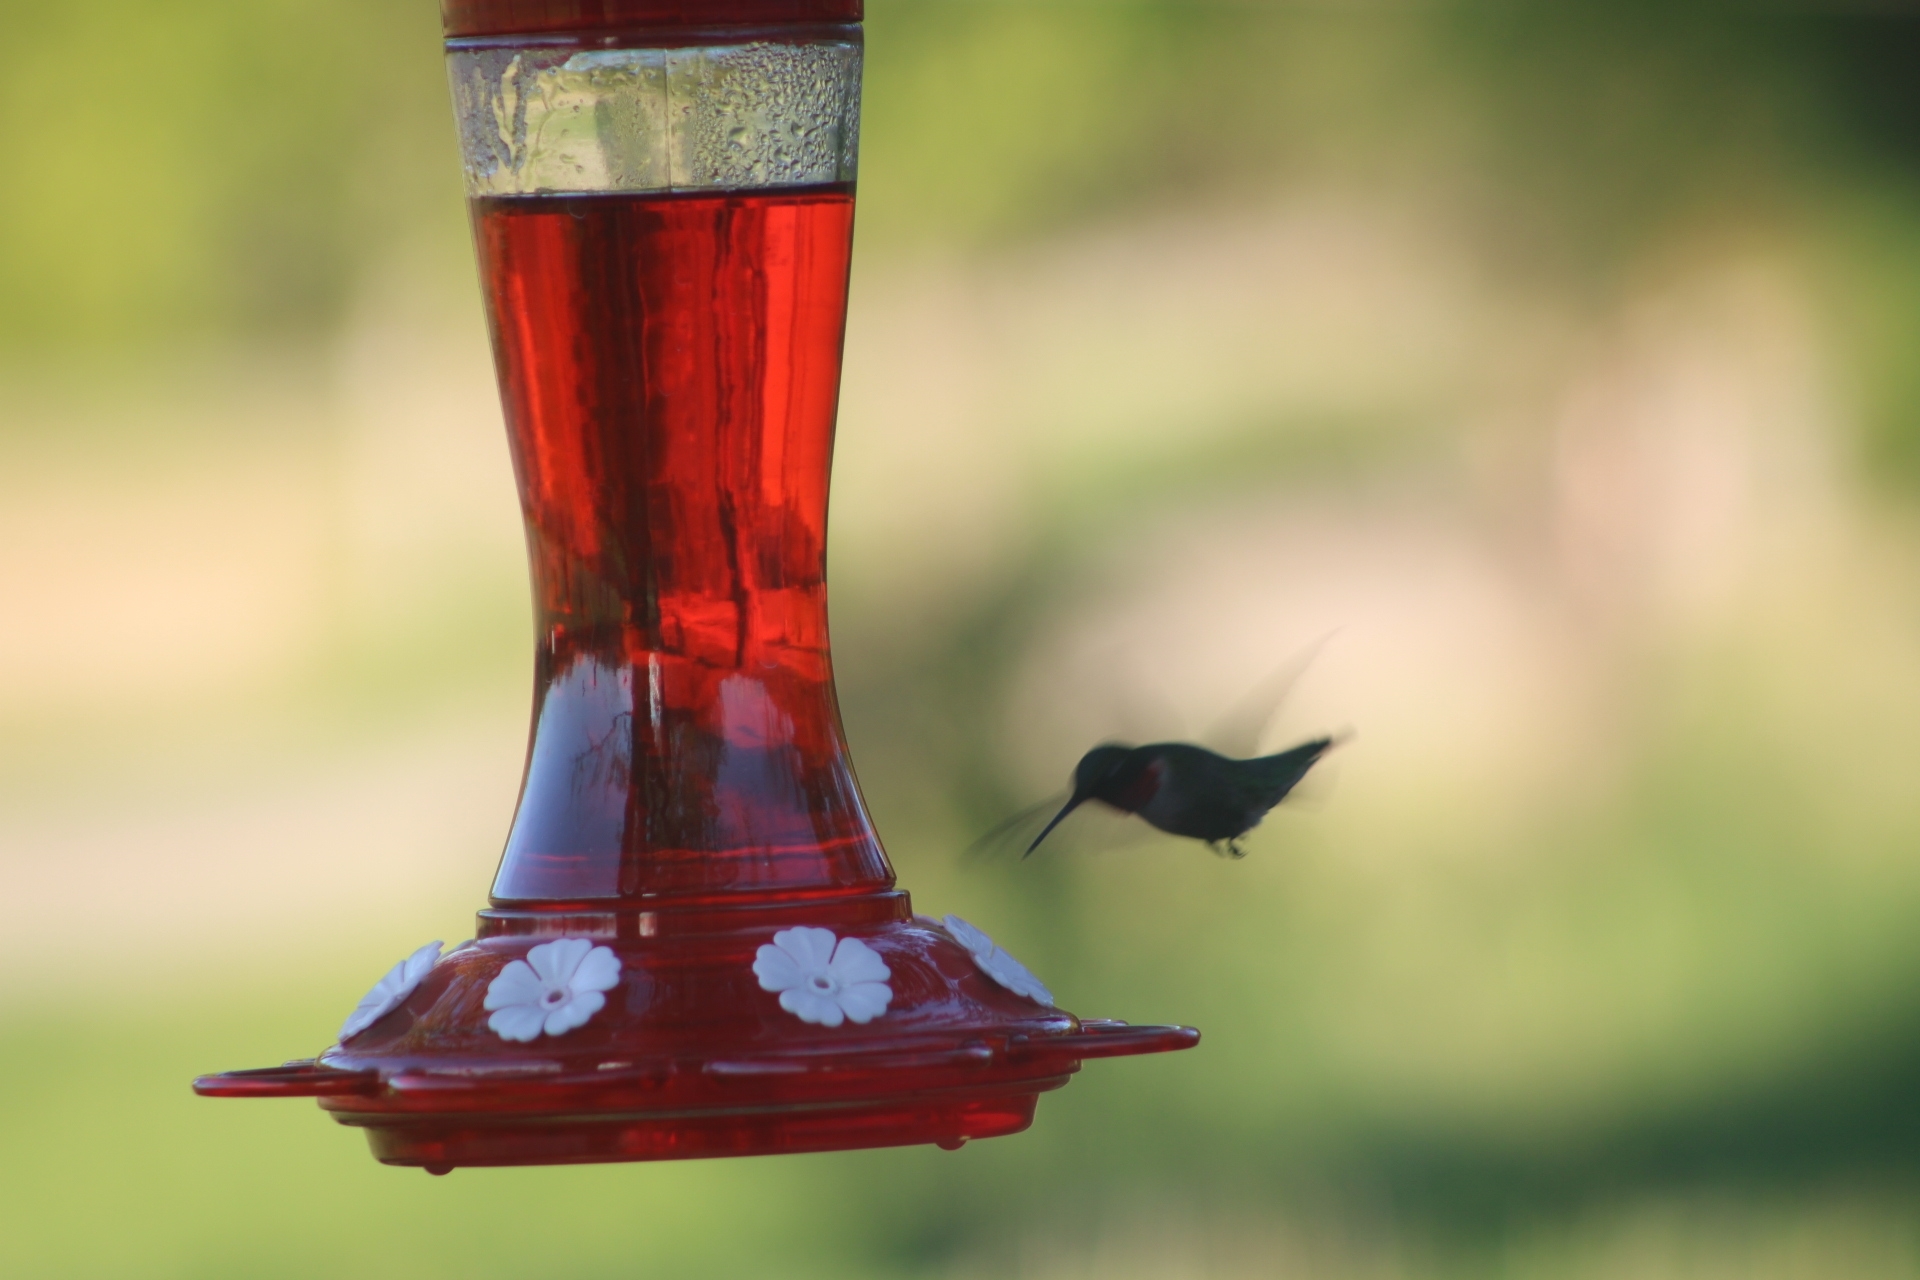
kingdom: Animalia
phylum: Chordata
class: Aves
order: Apodiformes
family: Trochilidae
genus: Archilochus
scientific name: Archilochus colubris
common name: Ruby-throated hummingbird
